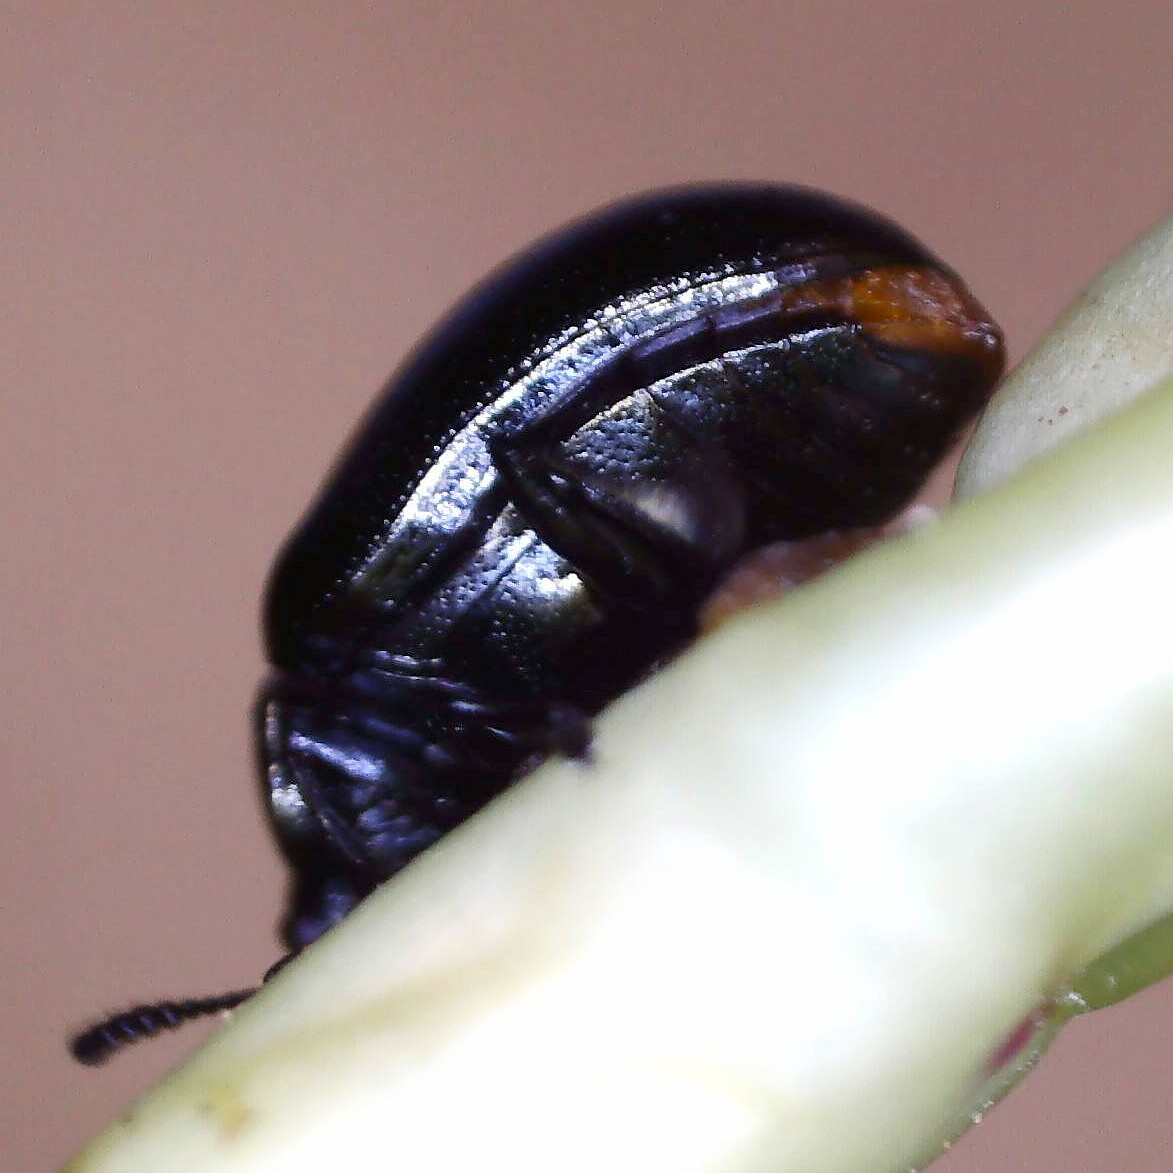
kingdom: Animalia
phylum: Arthropoda
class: Insecta
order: Coleoptera
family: Chrysomelidae
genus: Phaedon
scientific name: Phaedon armoraciae
